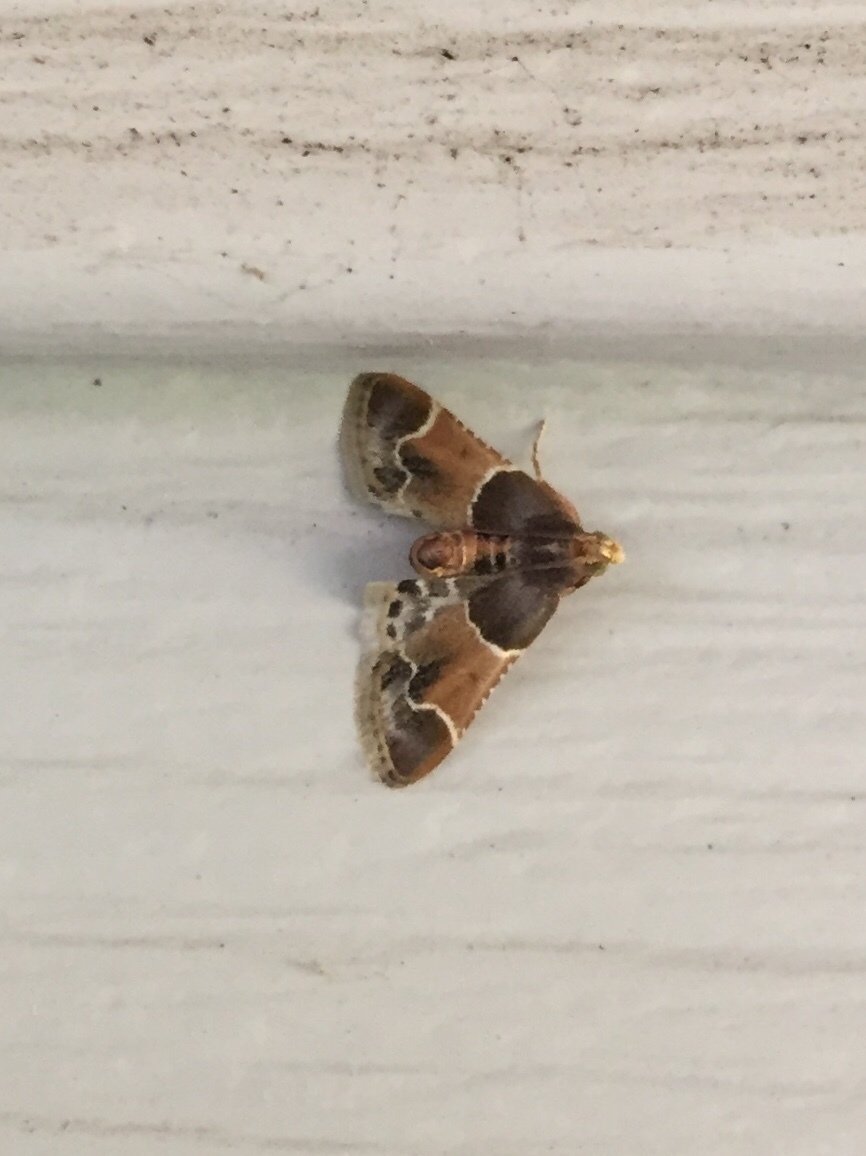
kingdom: Animalia
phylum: Arthropoda
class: Insecta
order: Lepidoptera
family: Pyralidae
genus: Pyralis
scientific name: Pyralis farinalis
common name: Meal moth
